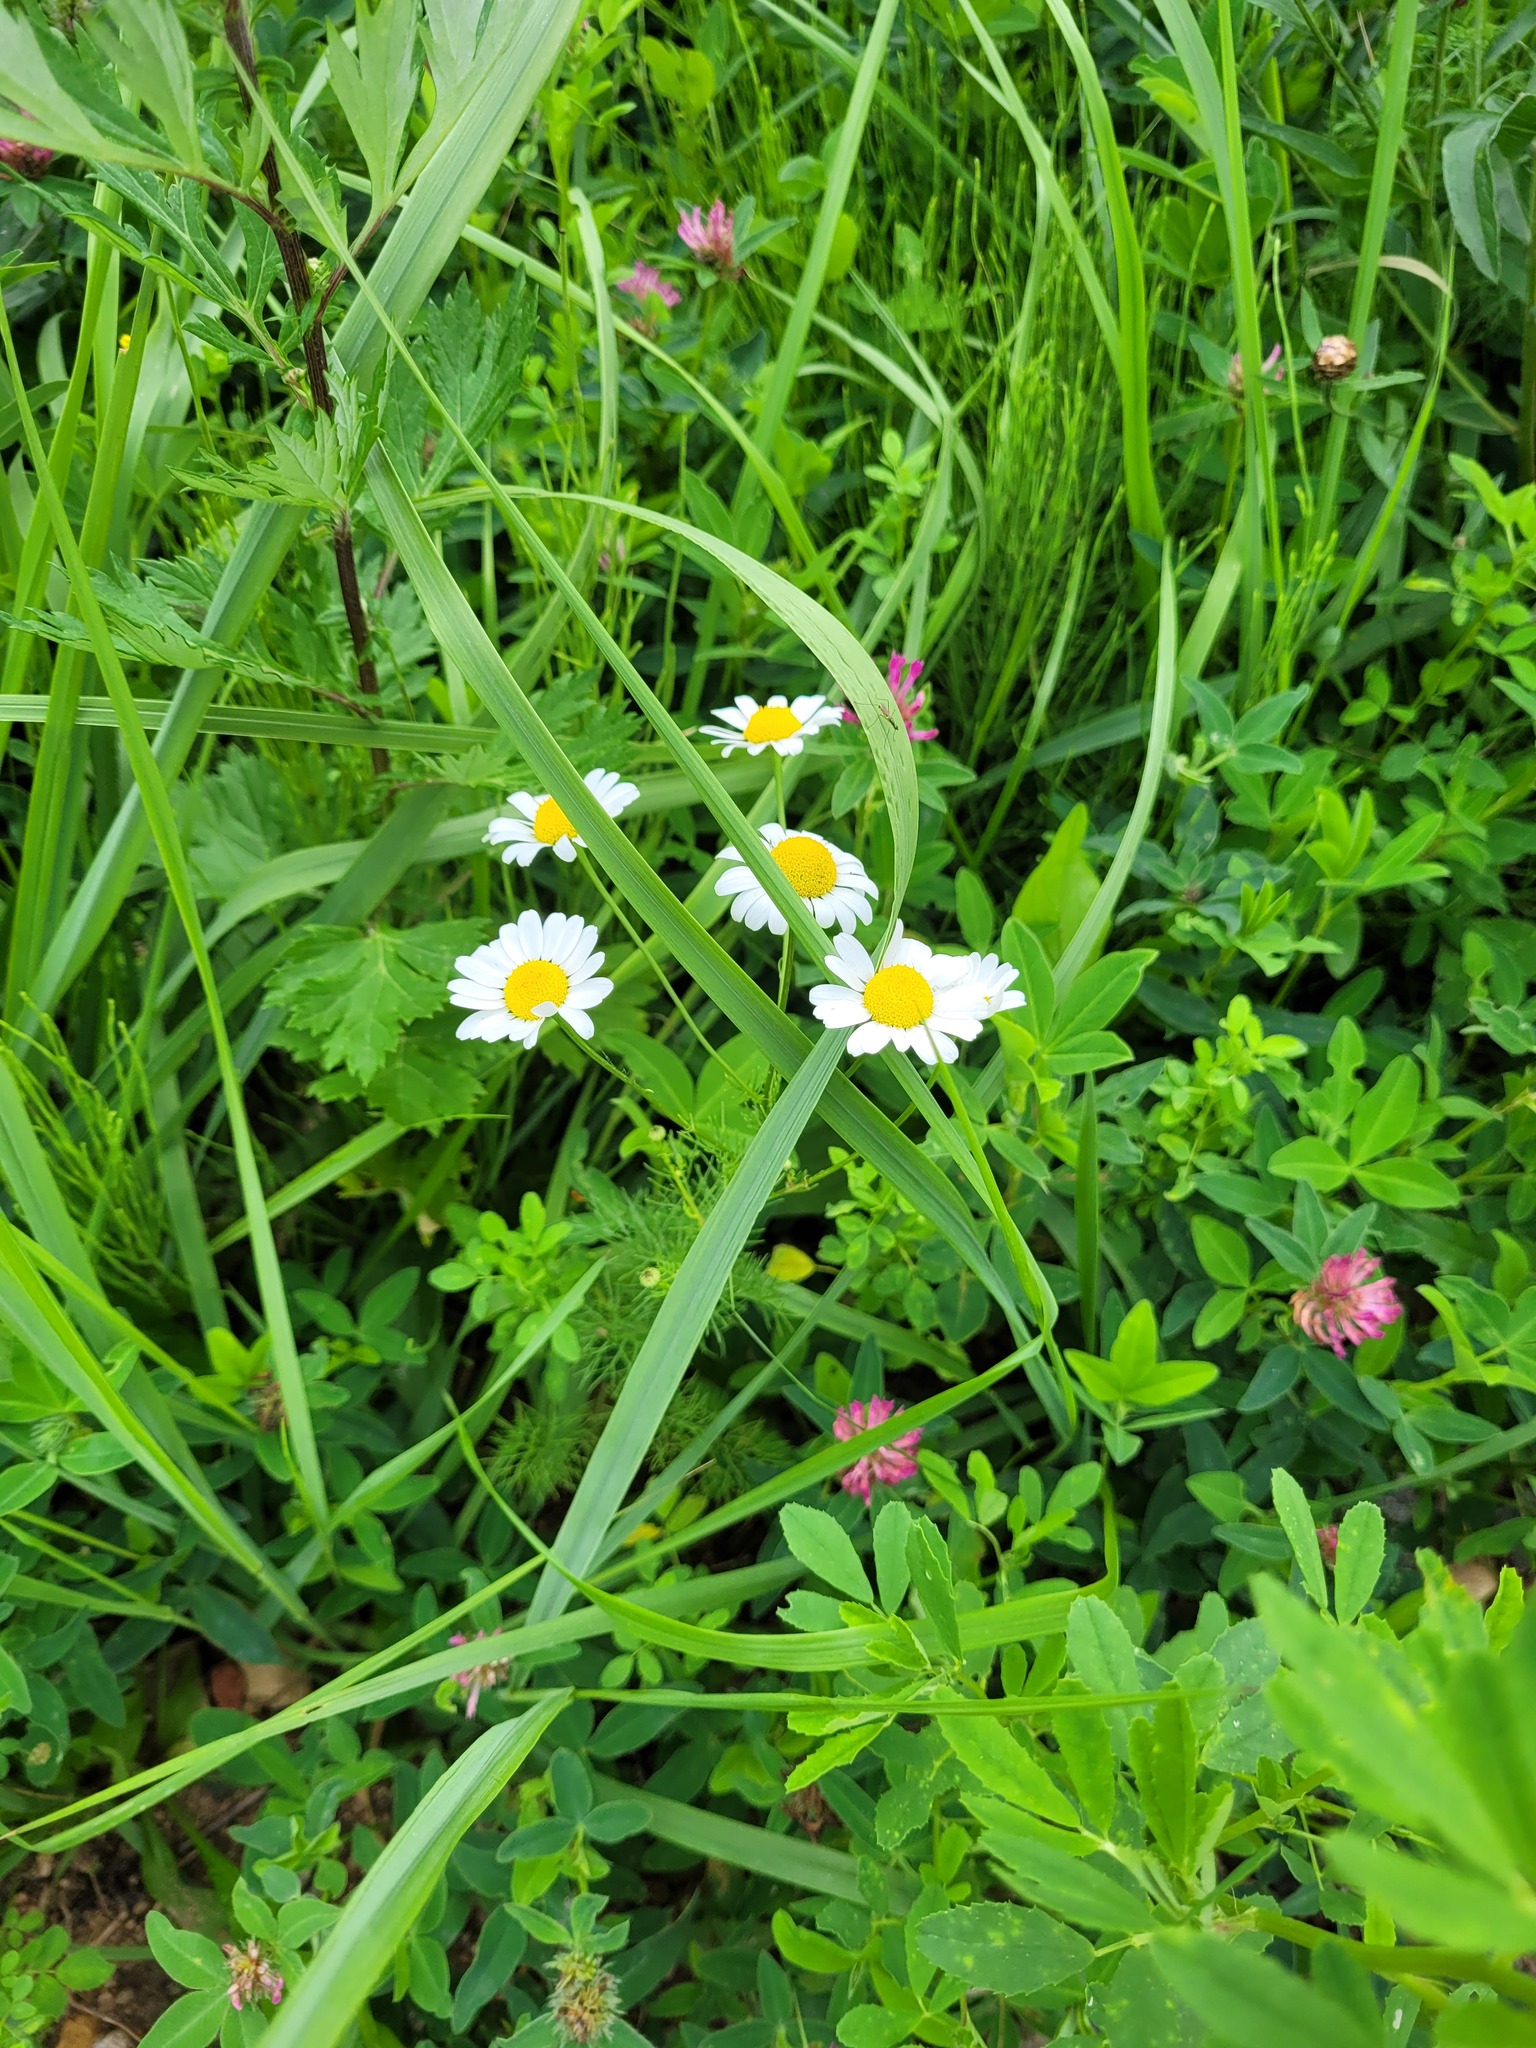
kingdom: Plantae
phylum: Tracheophyta
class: Magnoliopsida
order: Asterales
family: Asteraceae
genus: Tripleurospermum
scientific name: Tripleurospermum inodorum
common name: Scentless mayweed
